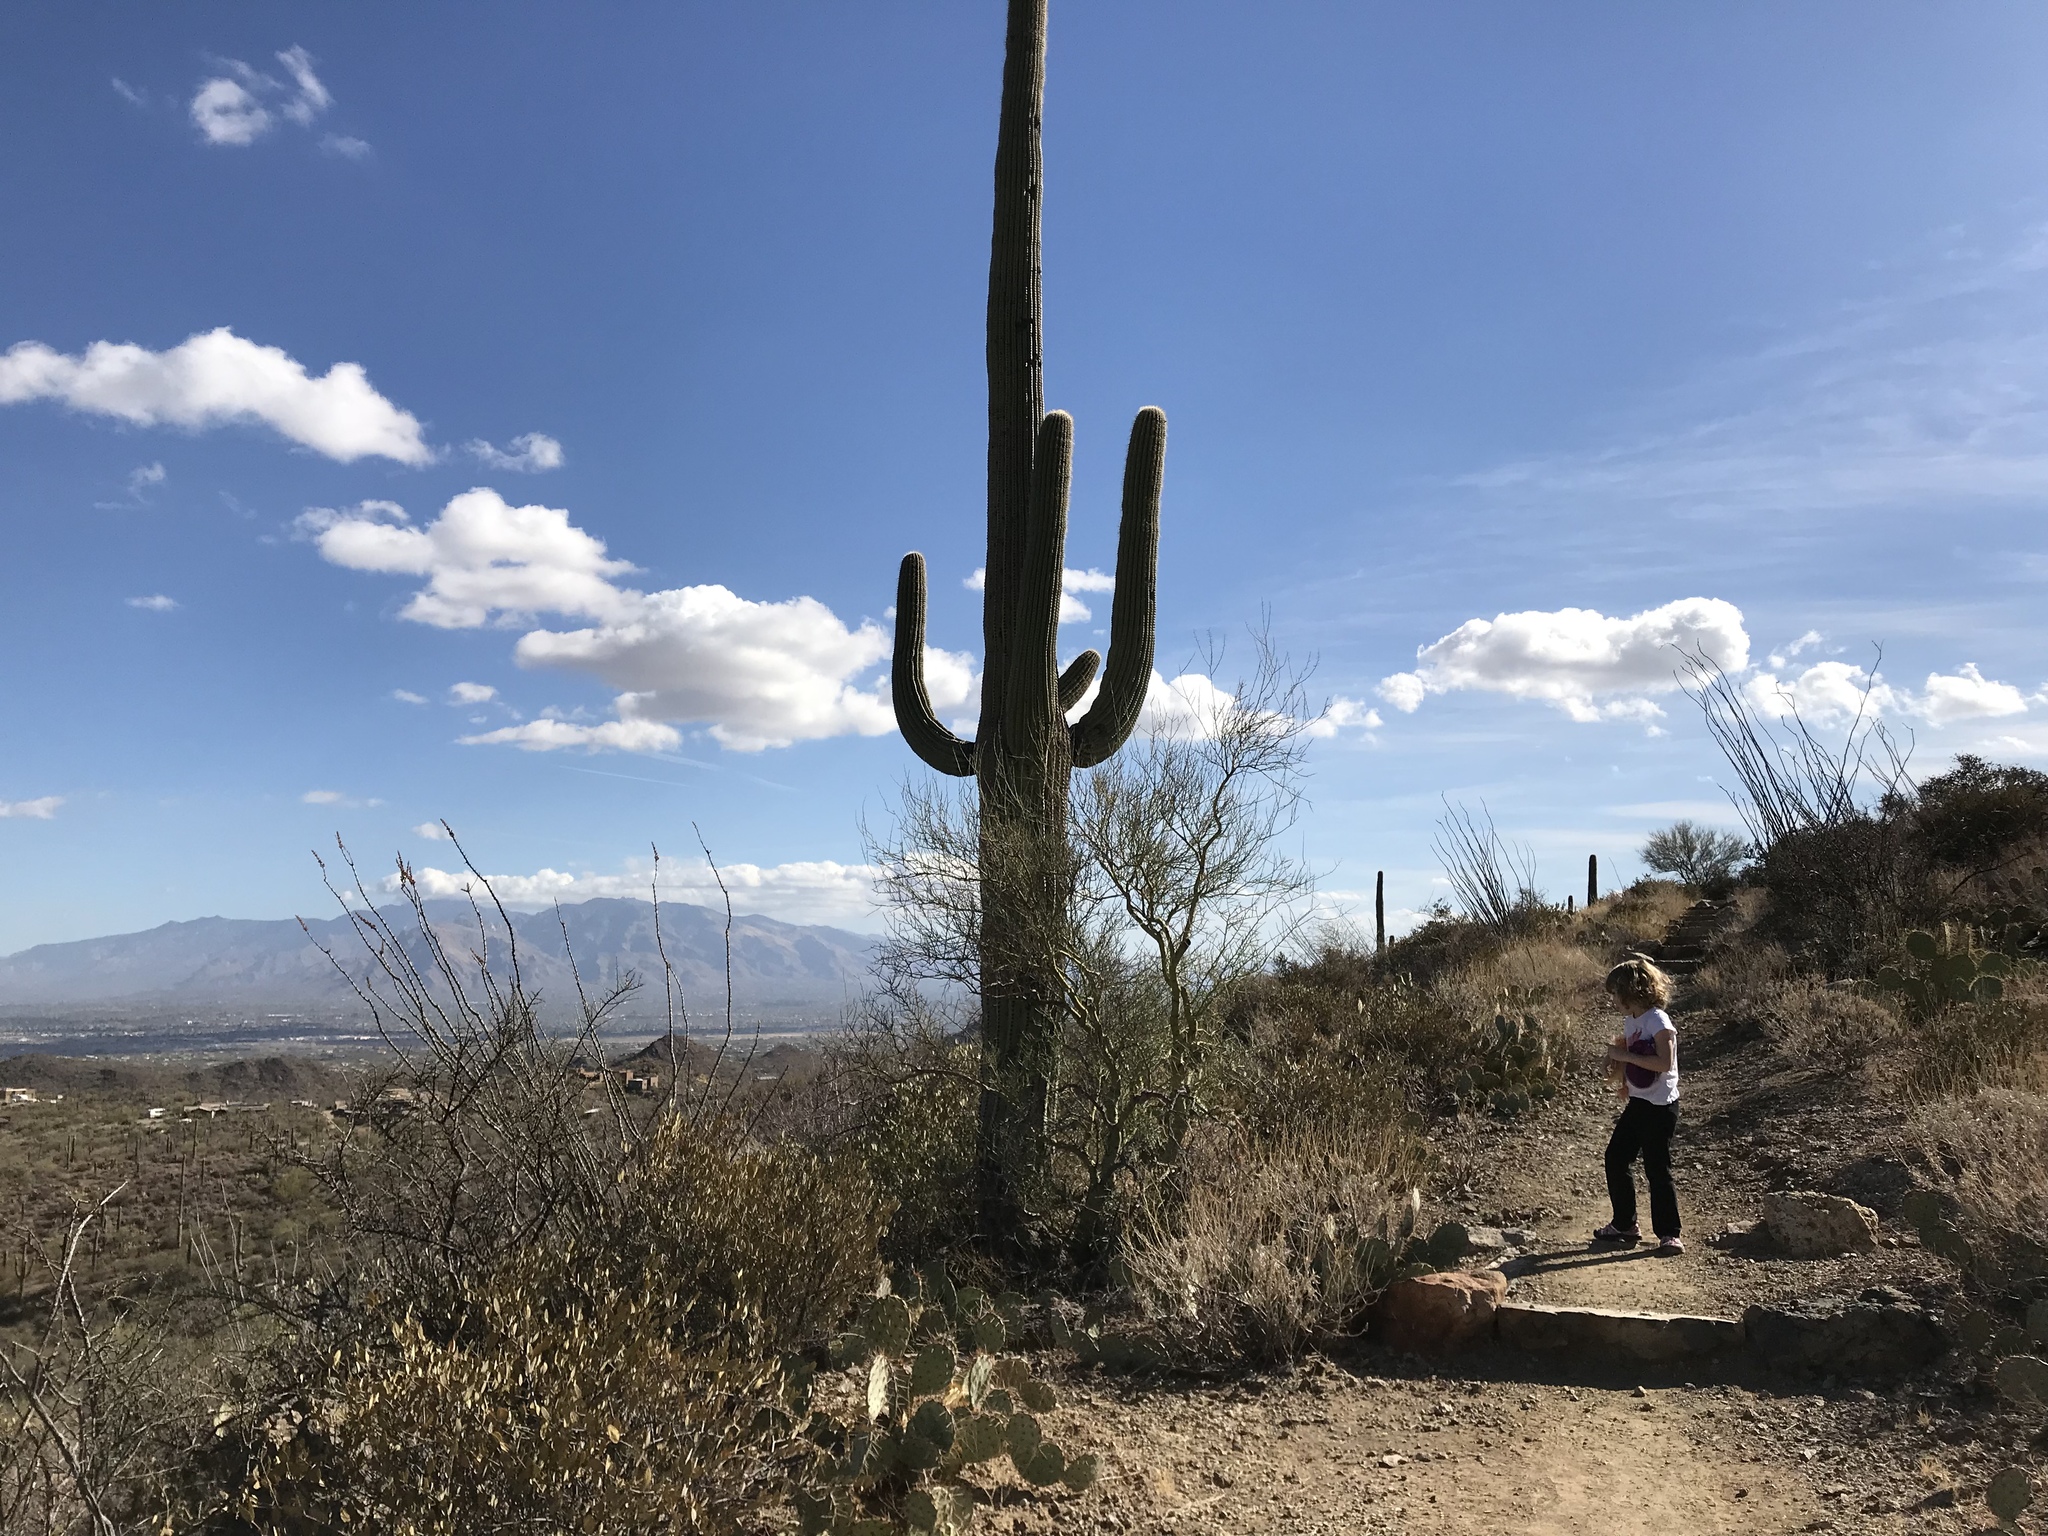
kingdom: Plantae
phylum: Tracheophyta
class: Magnoliopsida
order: Caryophyllales
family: Cactaceae
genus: Carnegiea
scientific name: Carnegiea gigantea
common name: Saguaro
